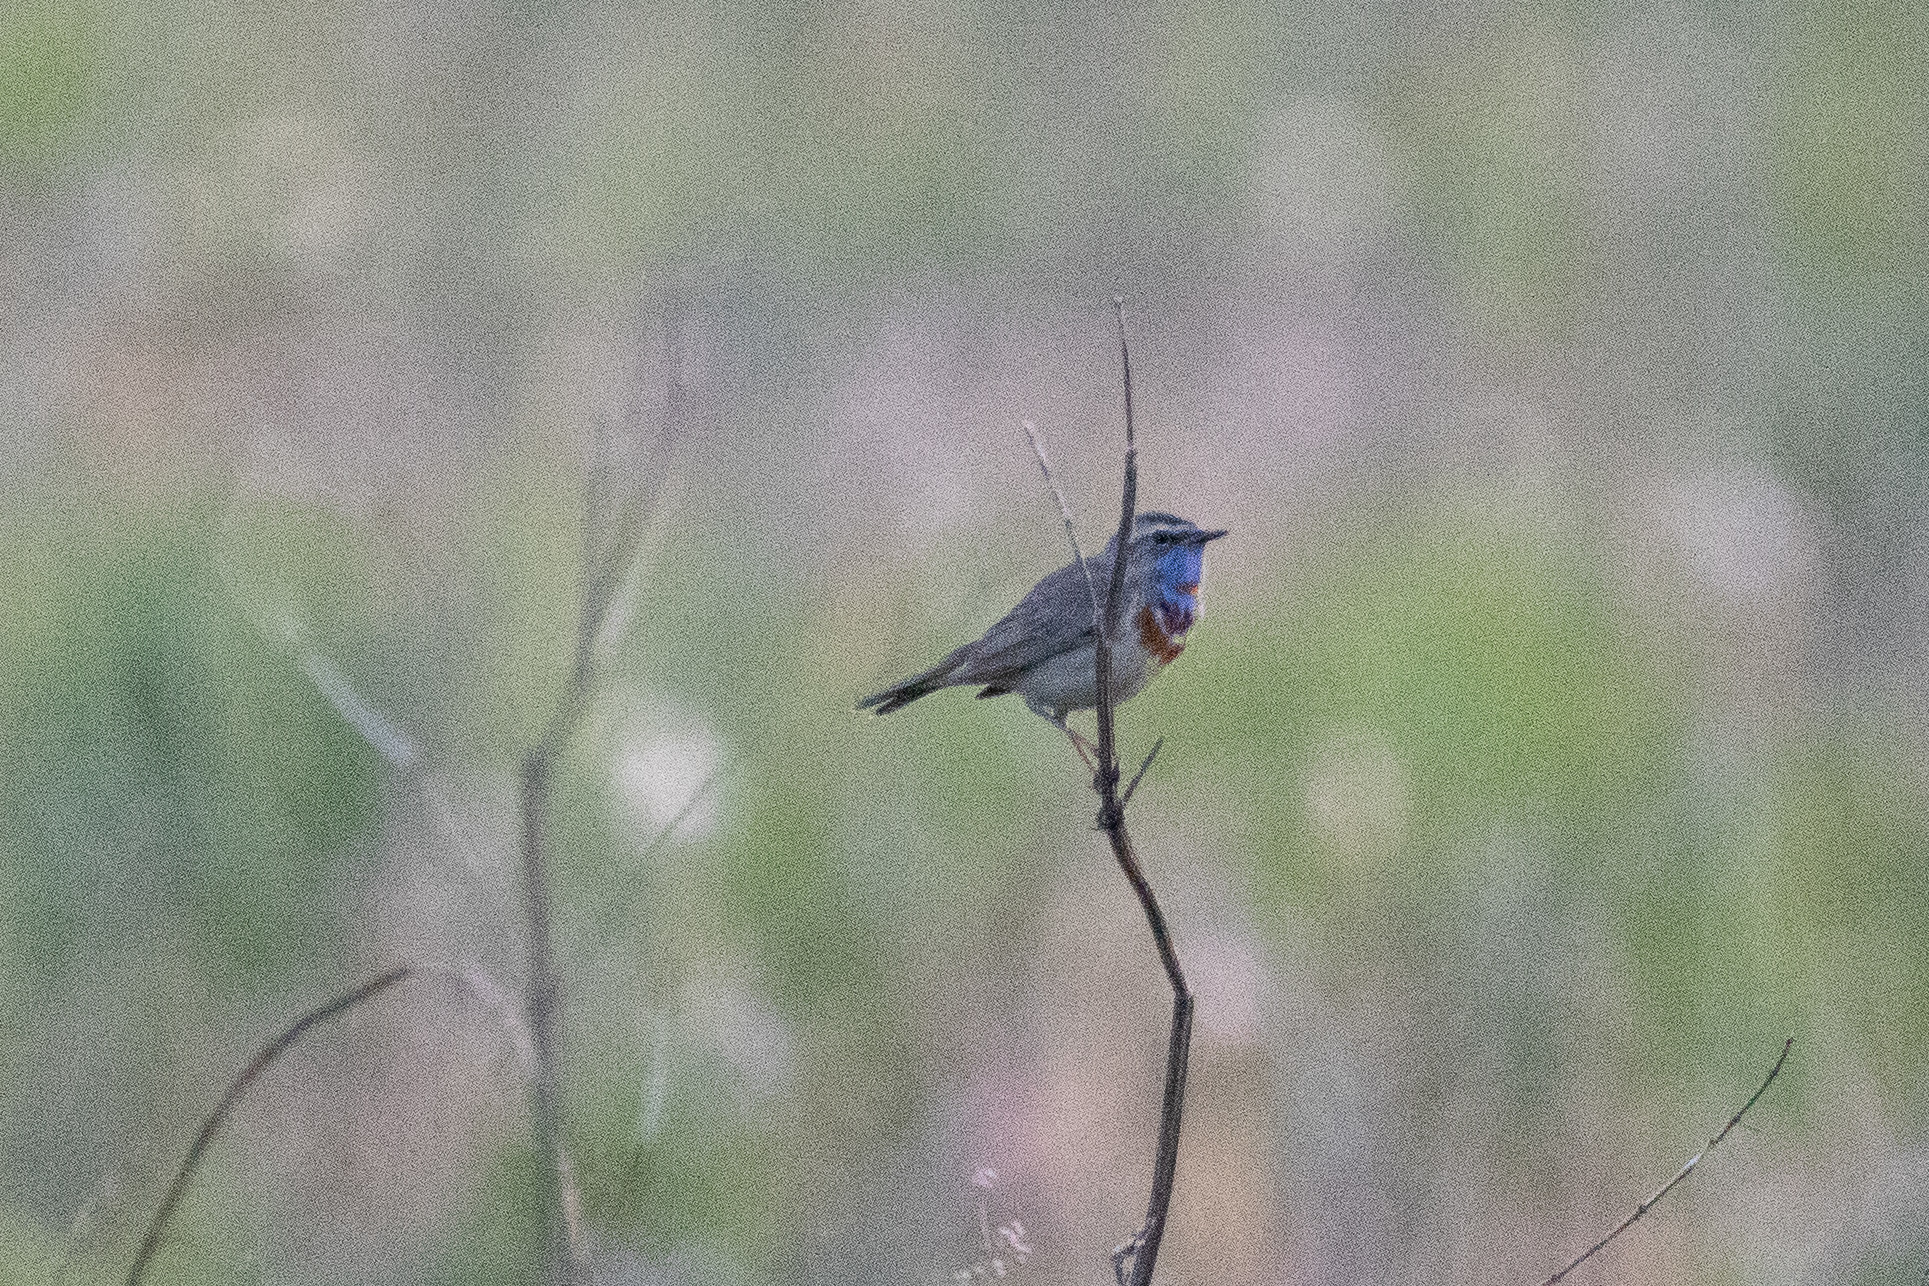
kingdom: Animalia
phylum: Chordata
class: Aves
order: Passeriformes
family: Muscicapidae
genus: Luscinia
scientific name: Luscinia svecica
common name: Bluethroat
